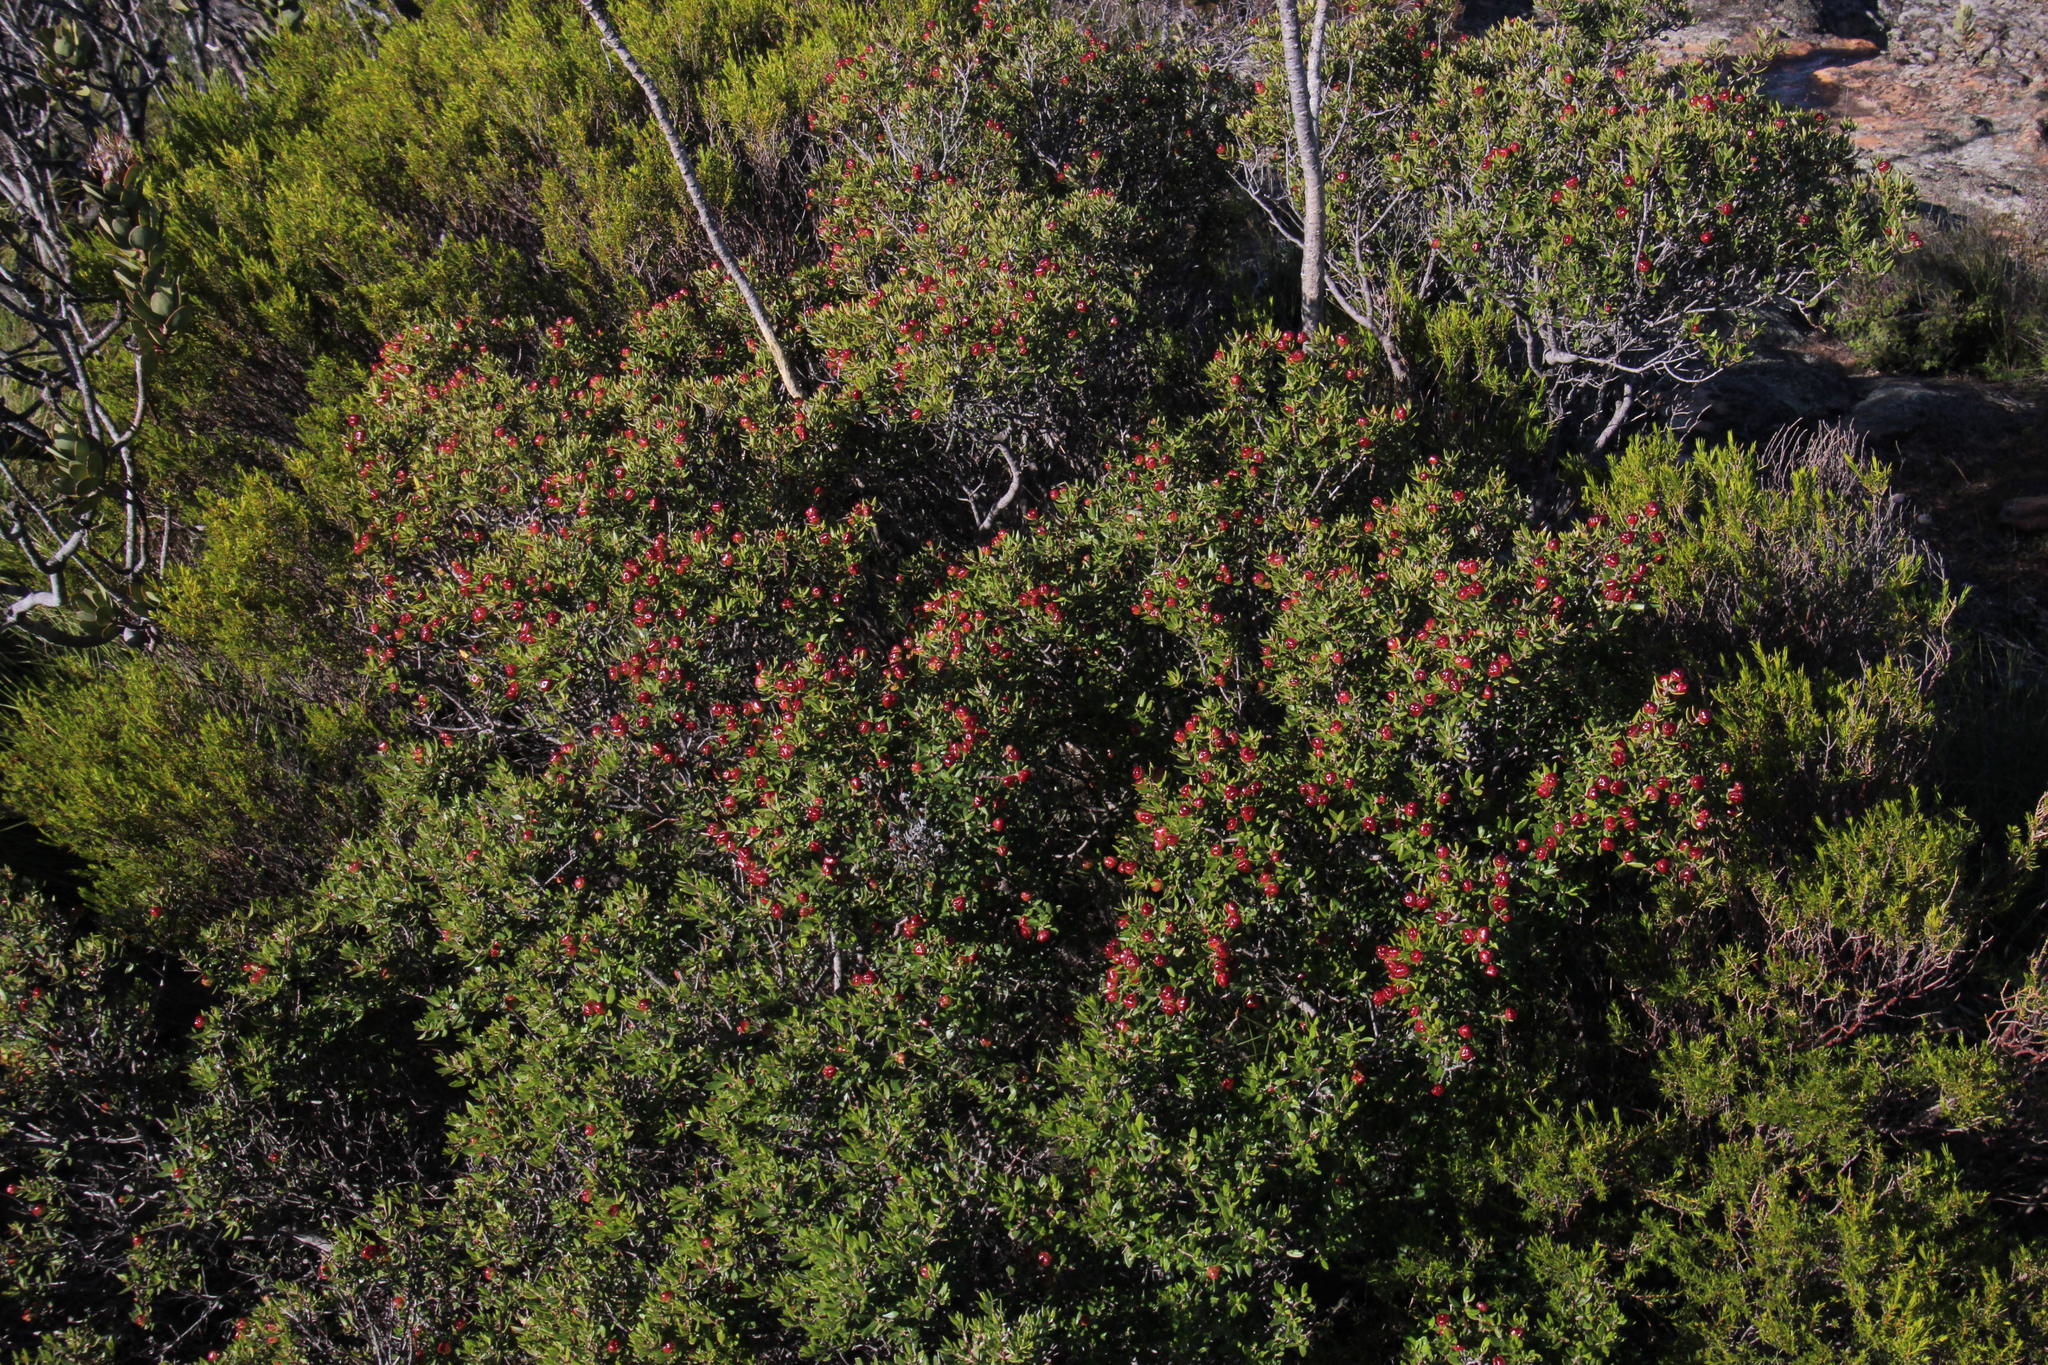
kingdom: Plantae
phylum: Tracheophyta
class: Magnoliopsida
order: Rosales
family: Rhamnaceae
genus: Phylica
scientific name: Phylica oleifolia
